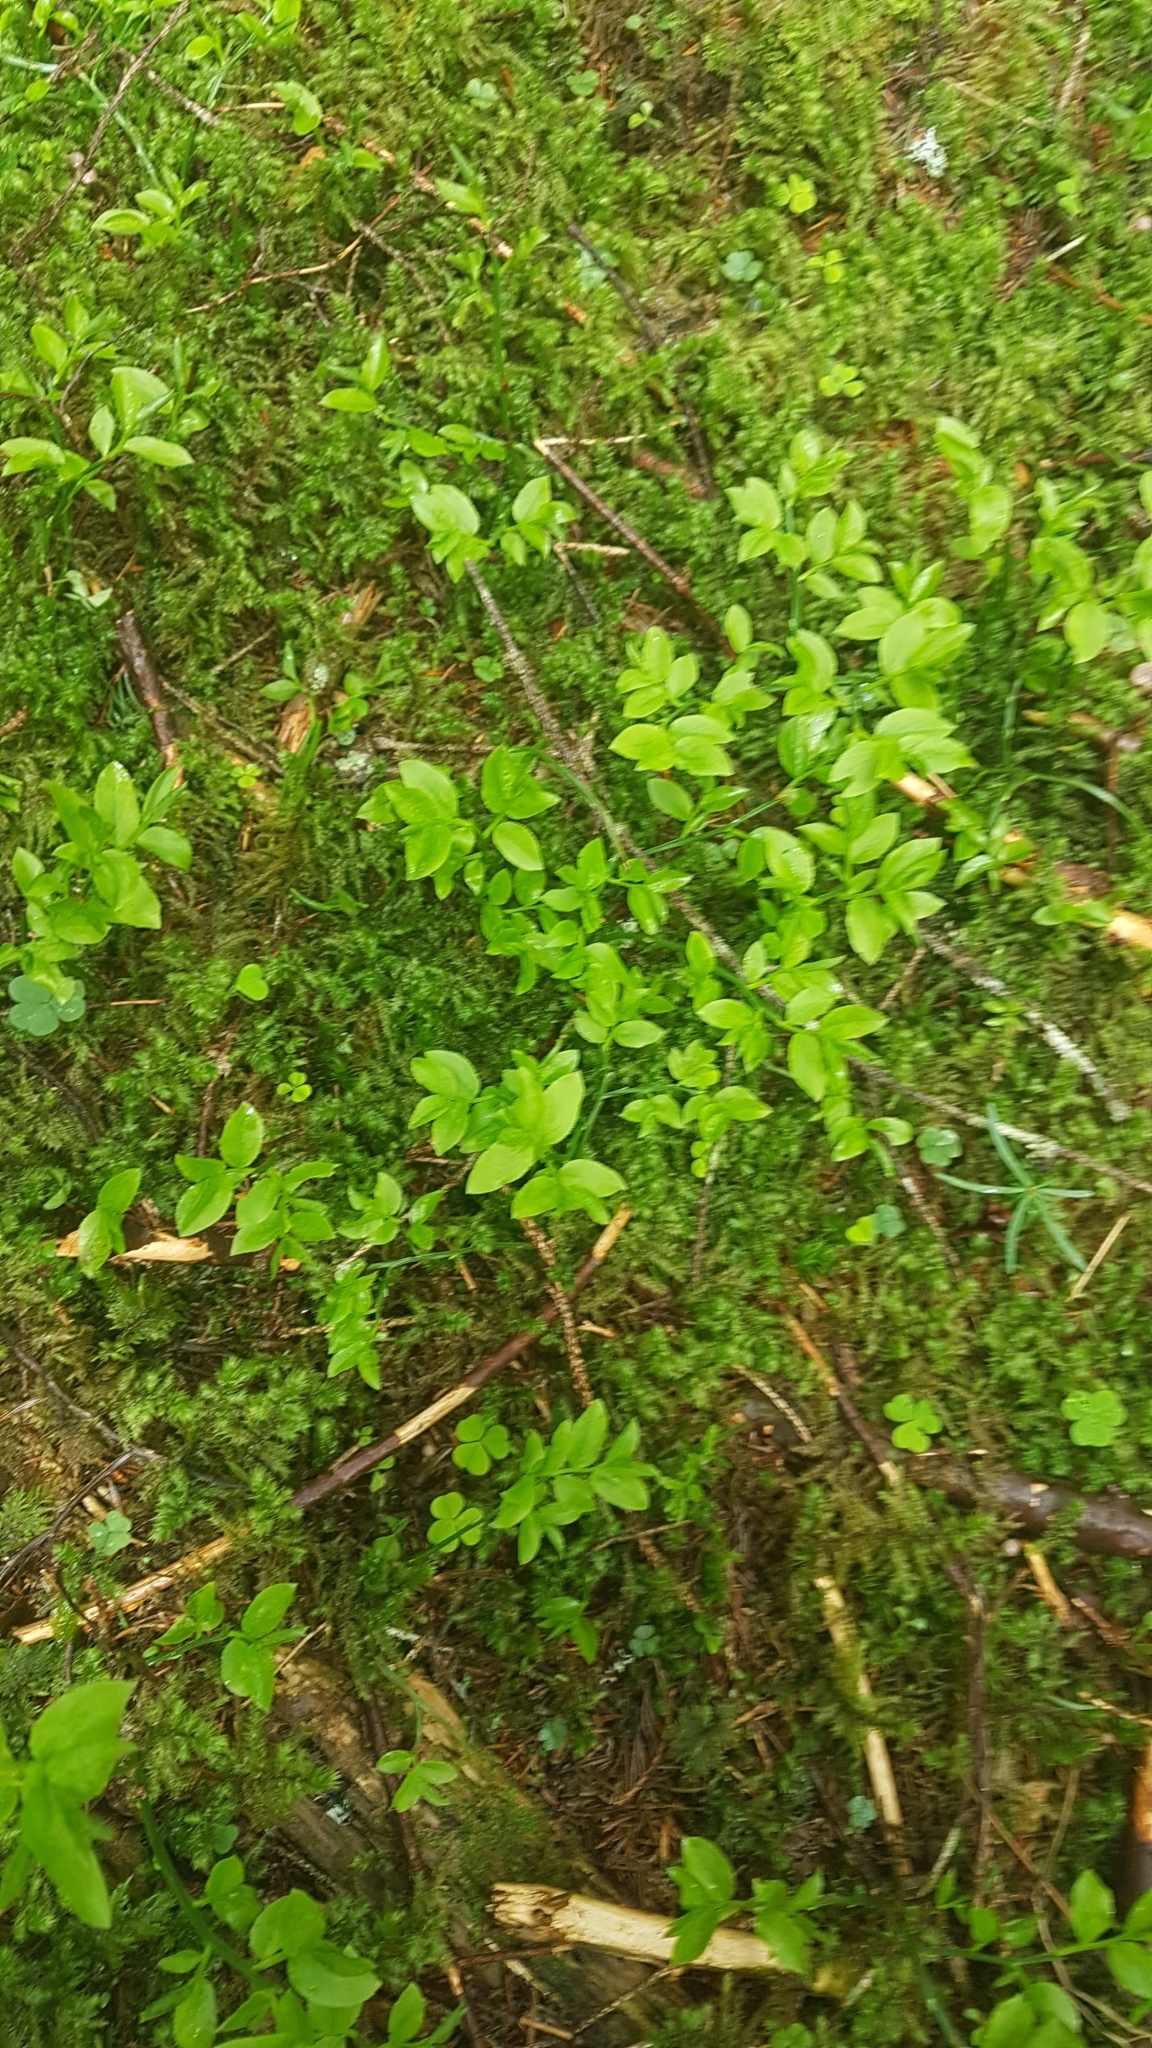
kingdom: Plantae
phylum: Tracheophyta
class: Magnoliopsida
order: Ericales
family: Ericaceae
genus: Vaccinium
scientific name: Vaccinium myrtillus
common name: Bilberry
